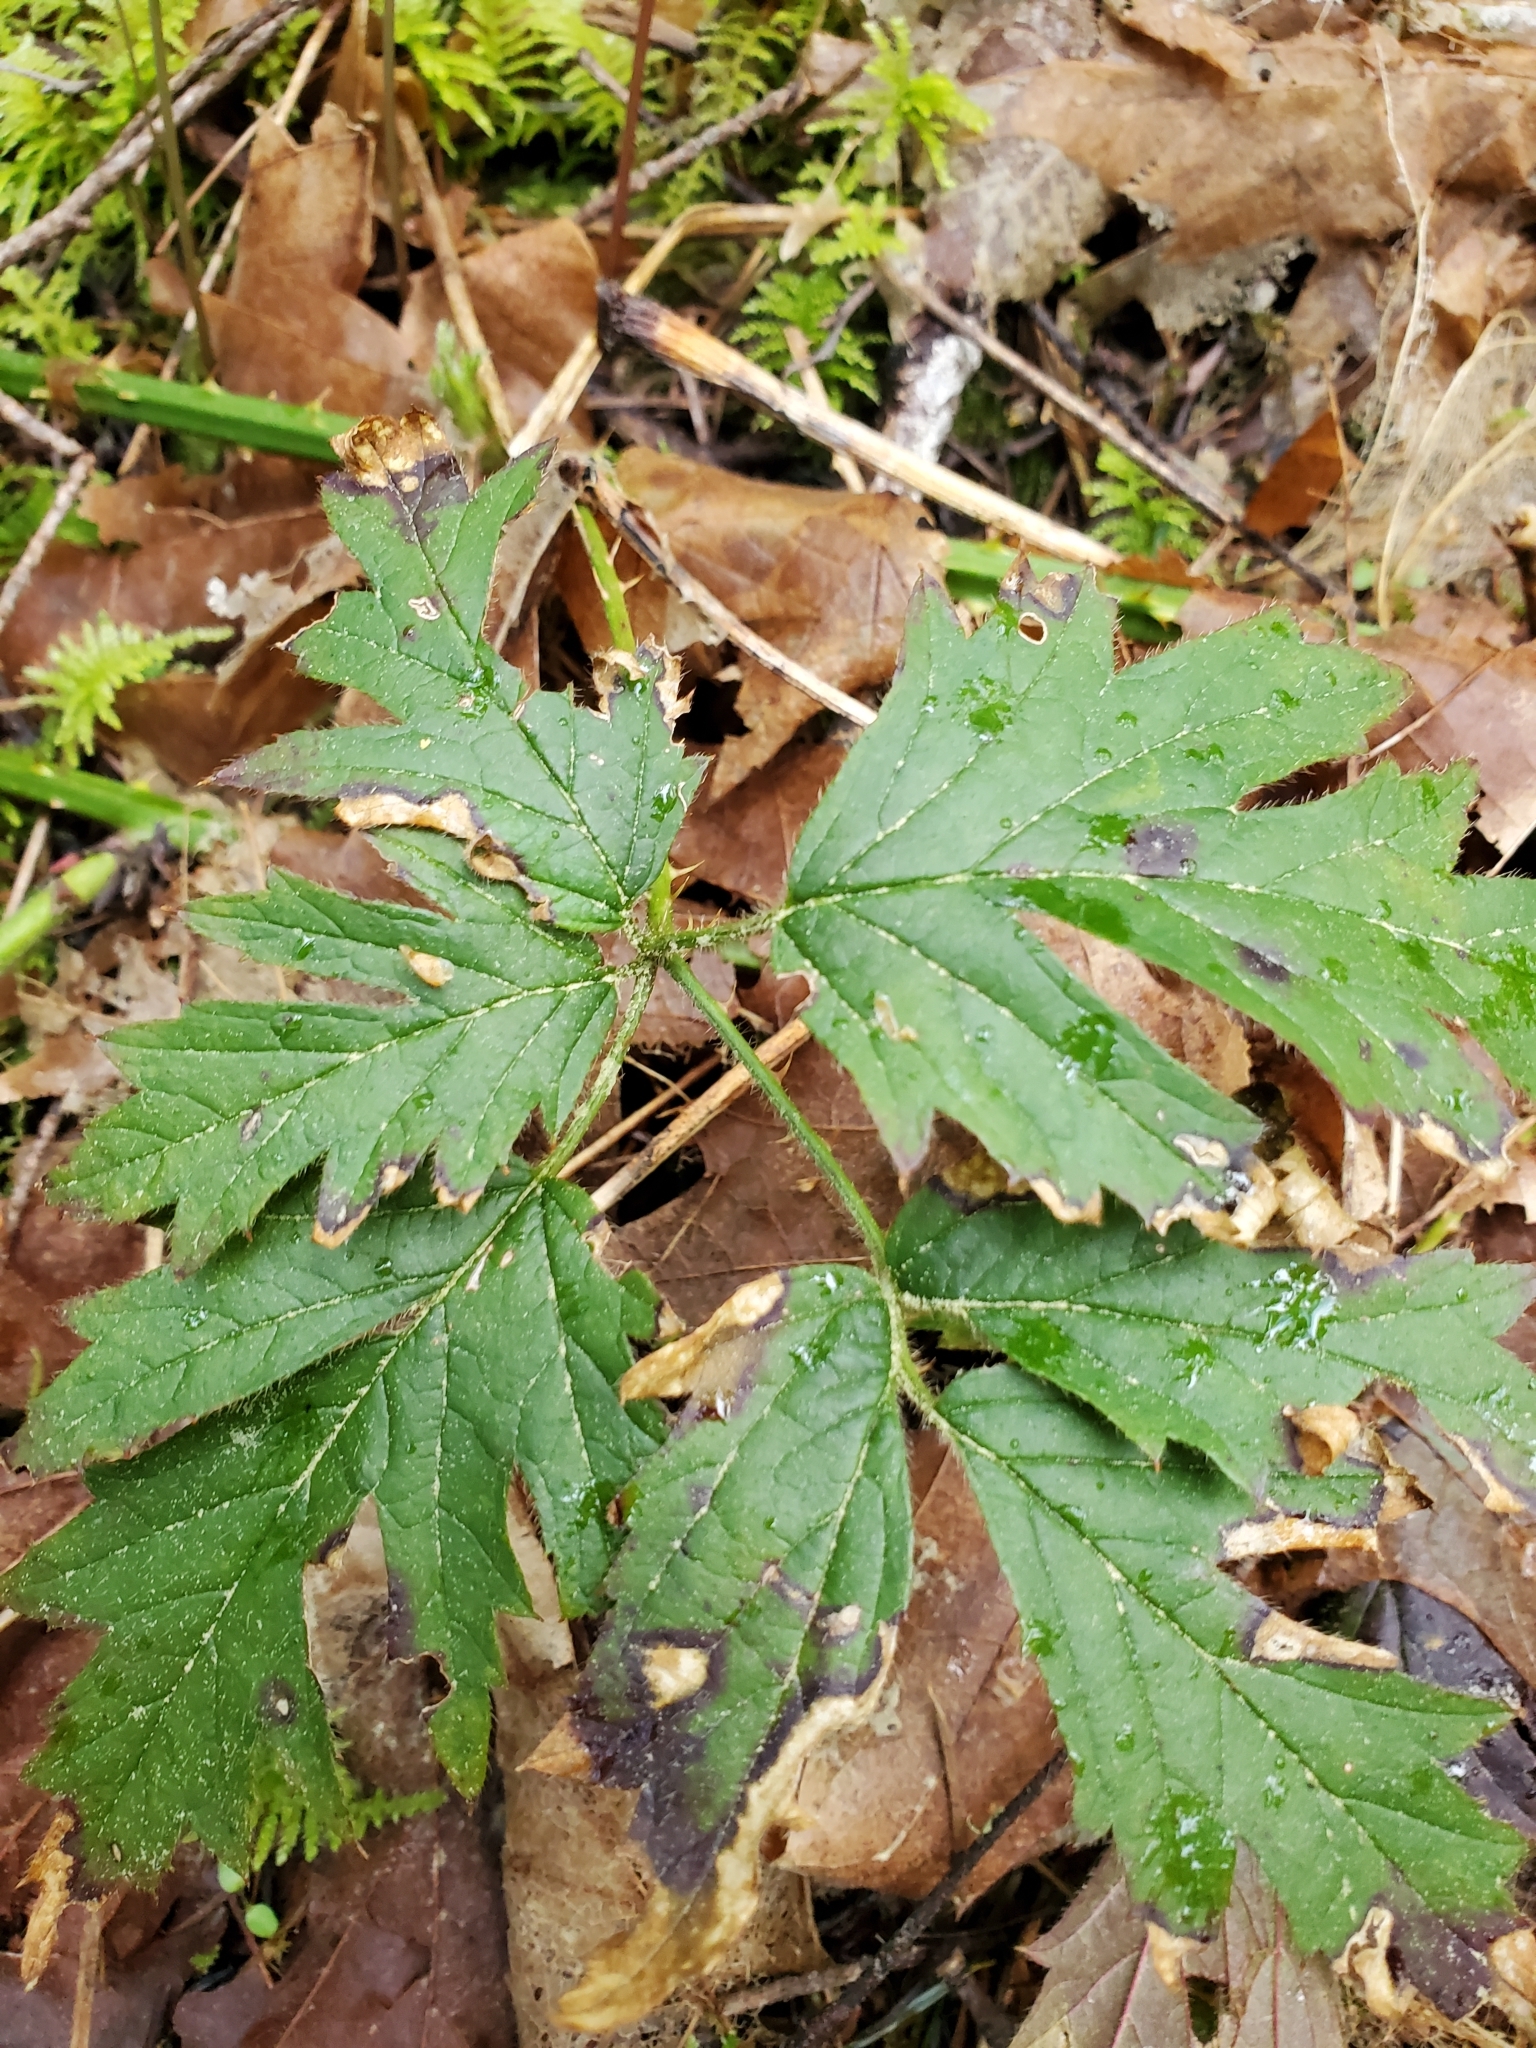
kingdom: Plantae
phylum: Tracheophyta
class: Magnoliopsida
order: Rosales
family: Rosaceae
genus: Rubus
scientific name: Rubus laciniatus
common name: Evergreen blackberry
